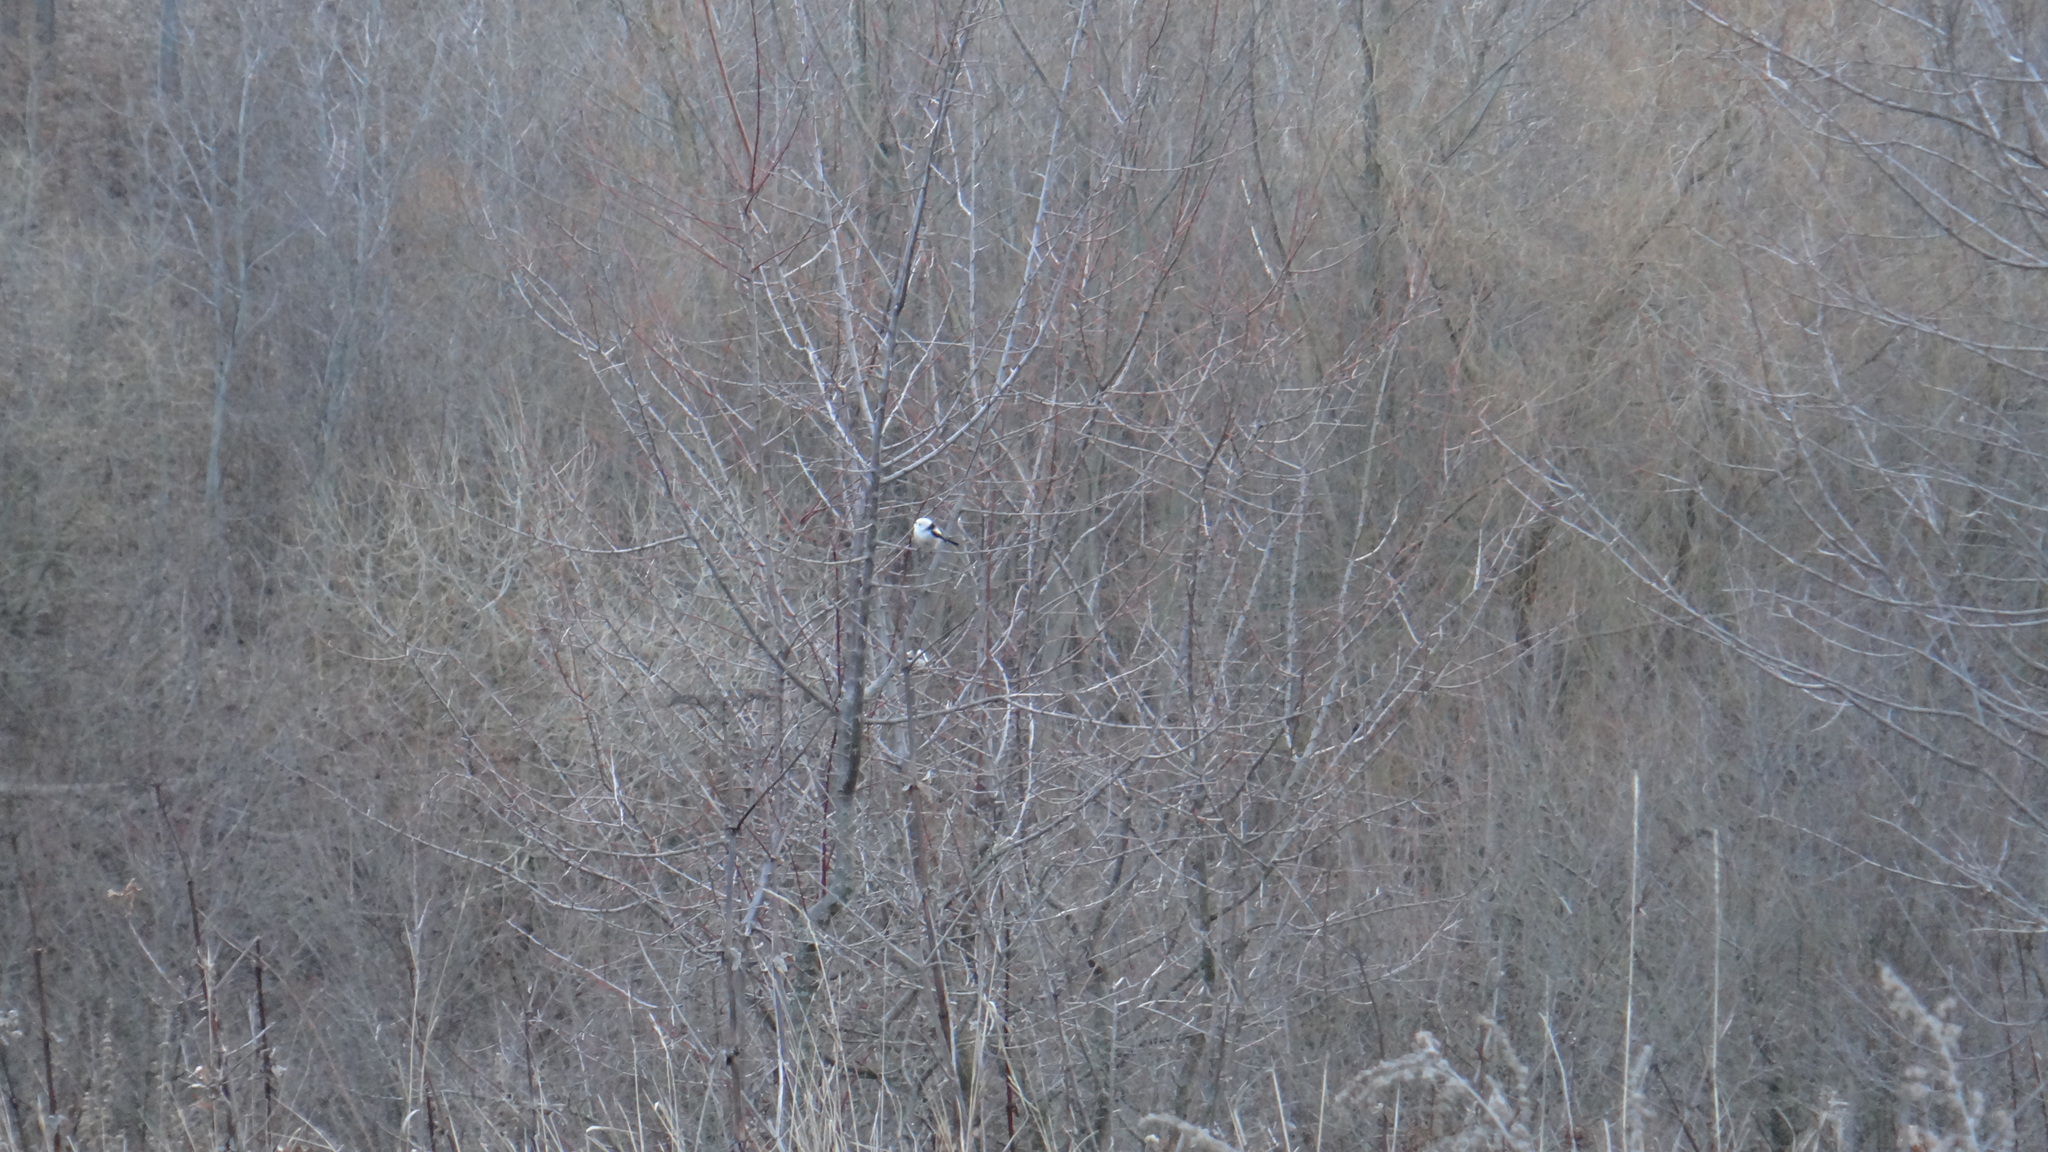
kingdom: Animalia
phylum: Chordata
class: Aves
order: Passeriformes
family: Aegithalidae
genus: Aegithalos
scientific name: Aegithalos caudatus
